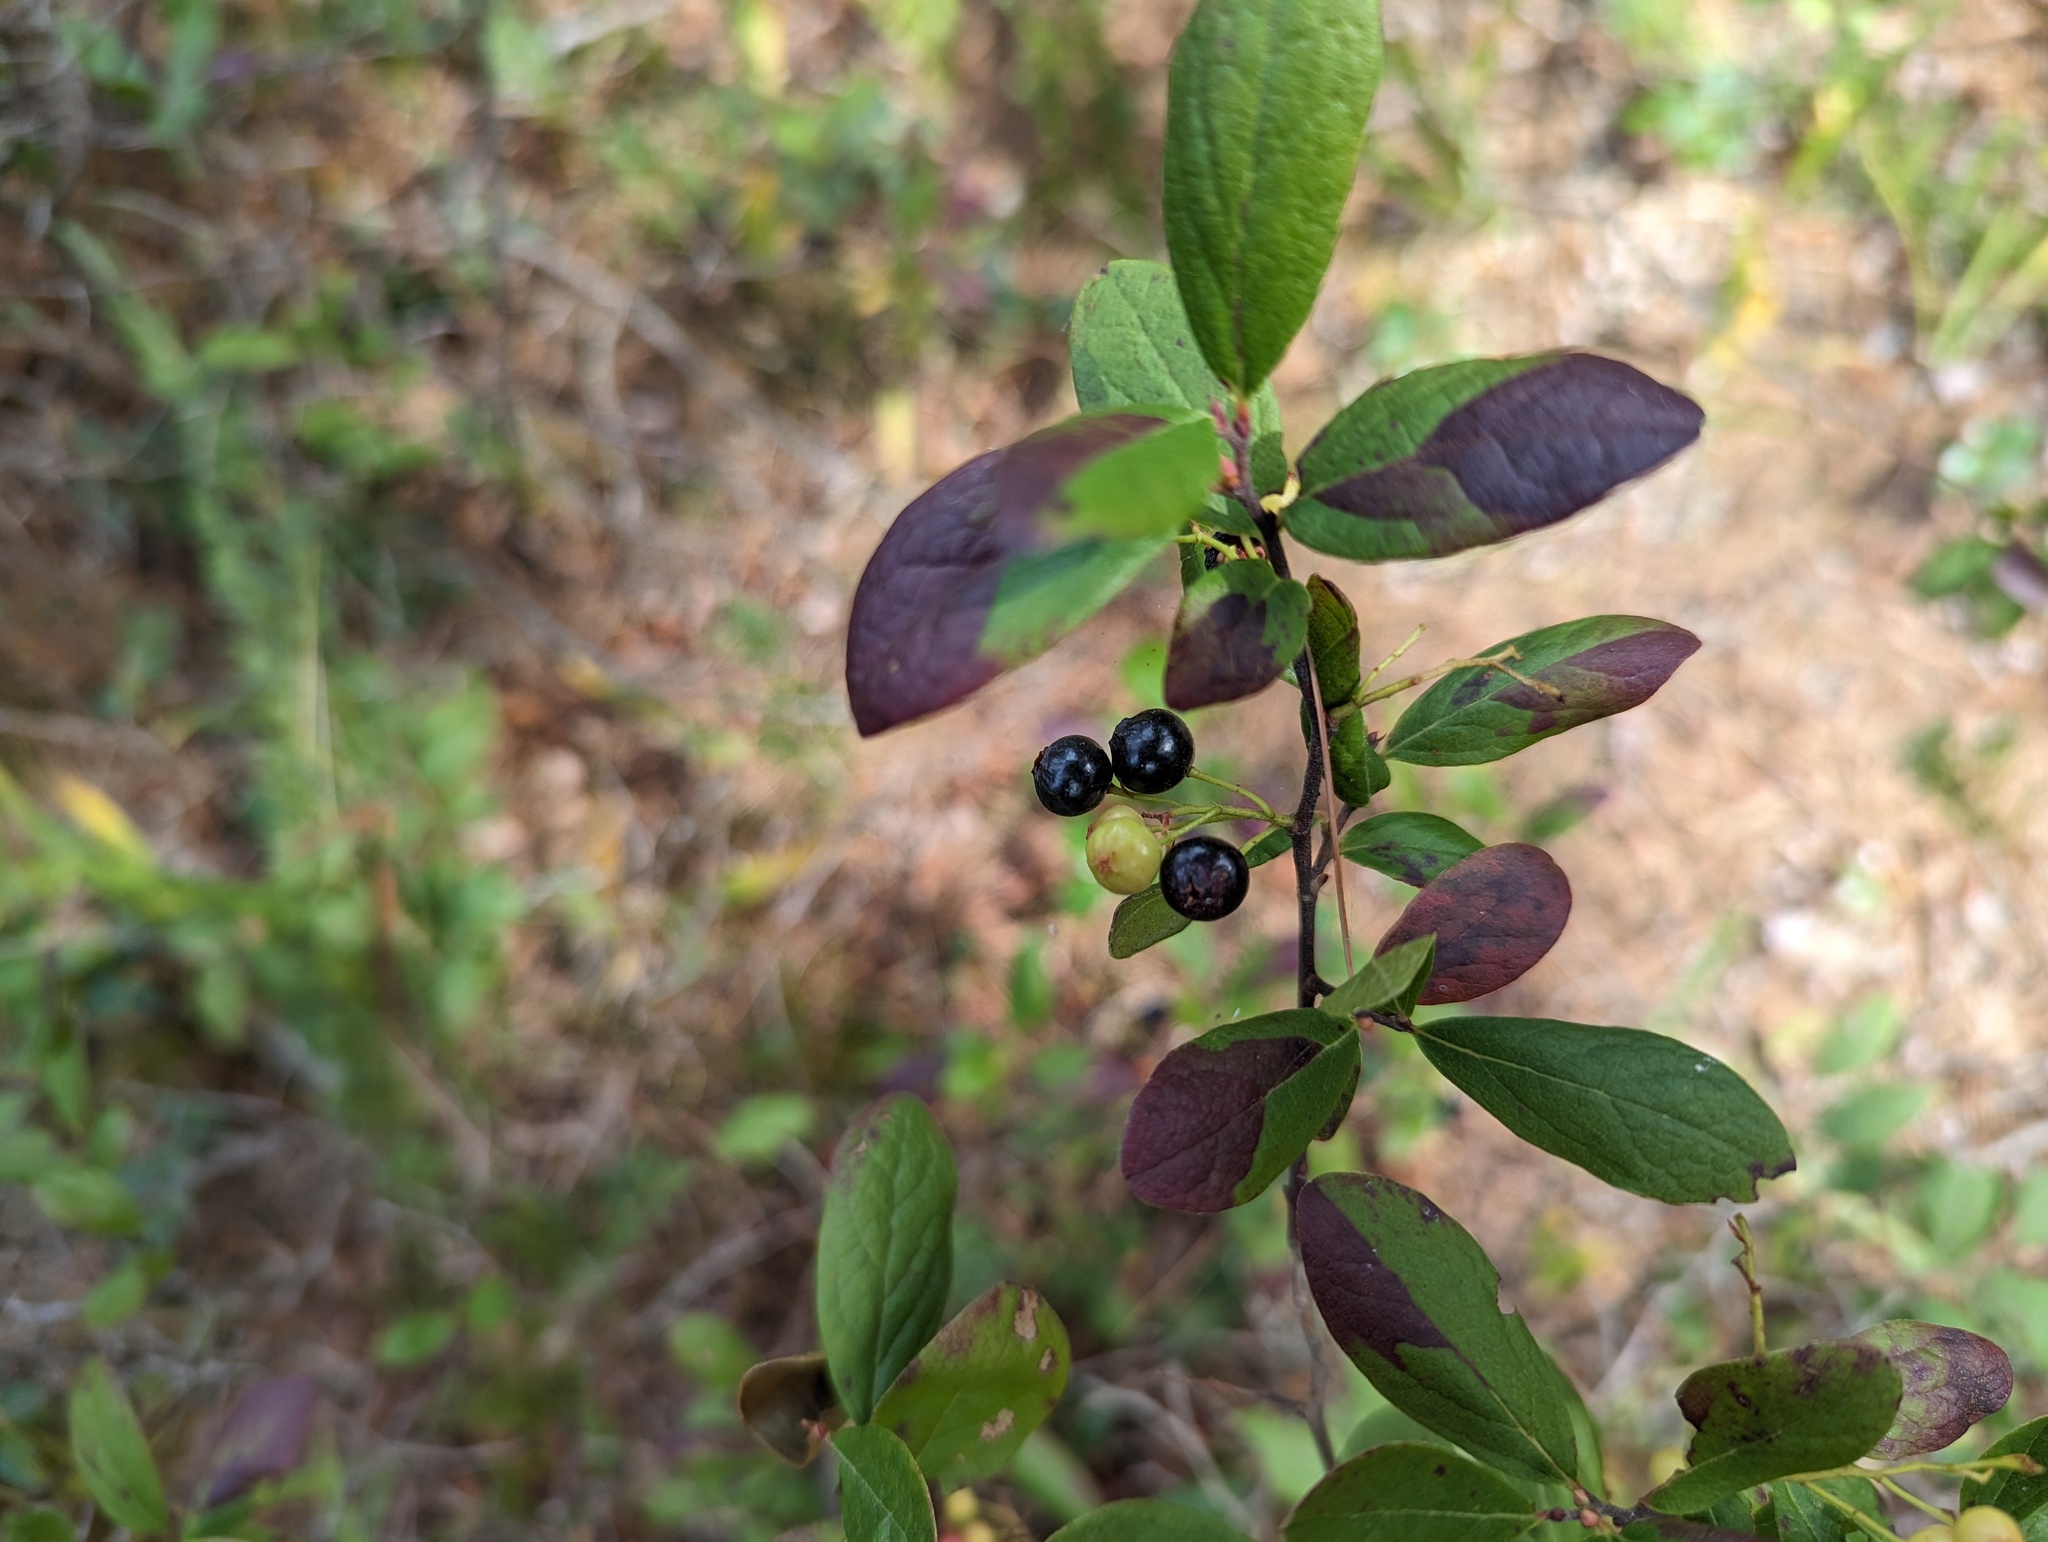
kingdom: Plantae
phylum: Tracheophyta
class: Magnoliopsida
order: Ericales
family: Ericaceae
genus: Gaylussacia
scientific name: Gaylussacia baccata
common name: Black huckleberry
